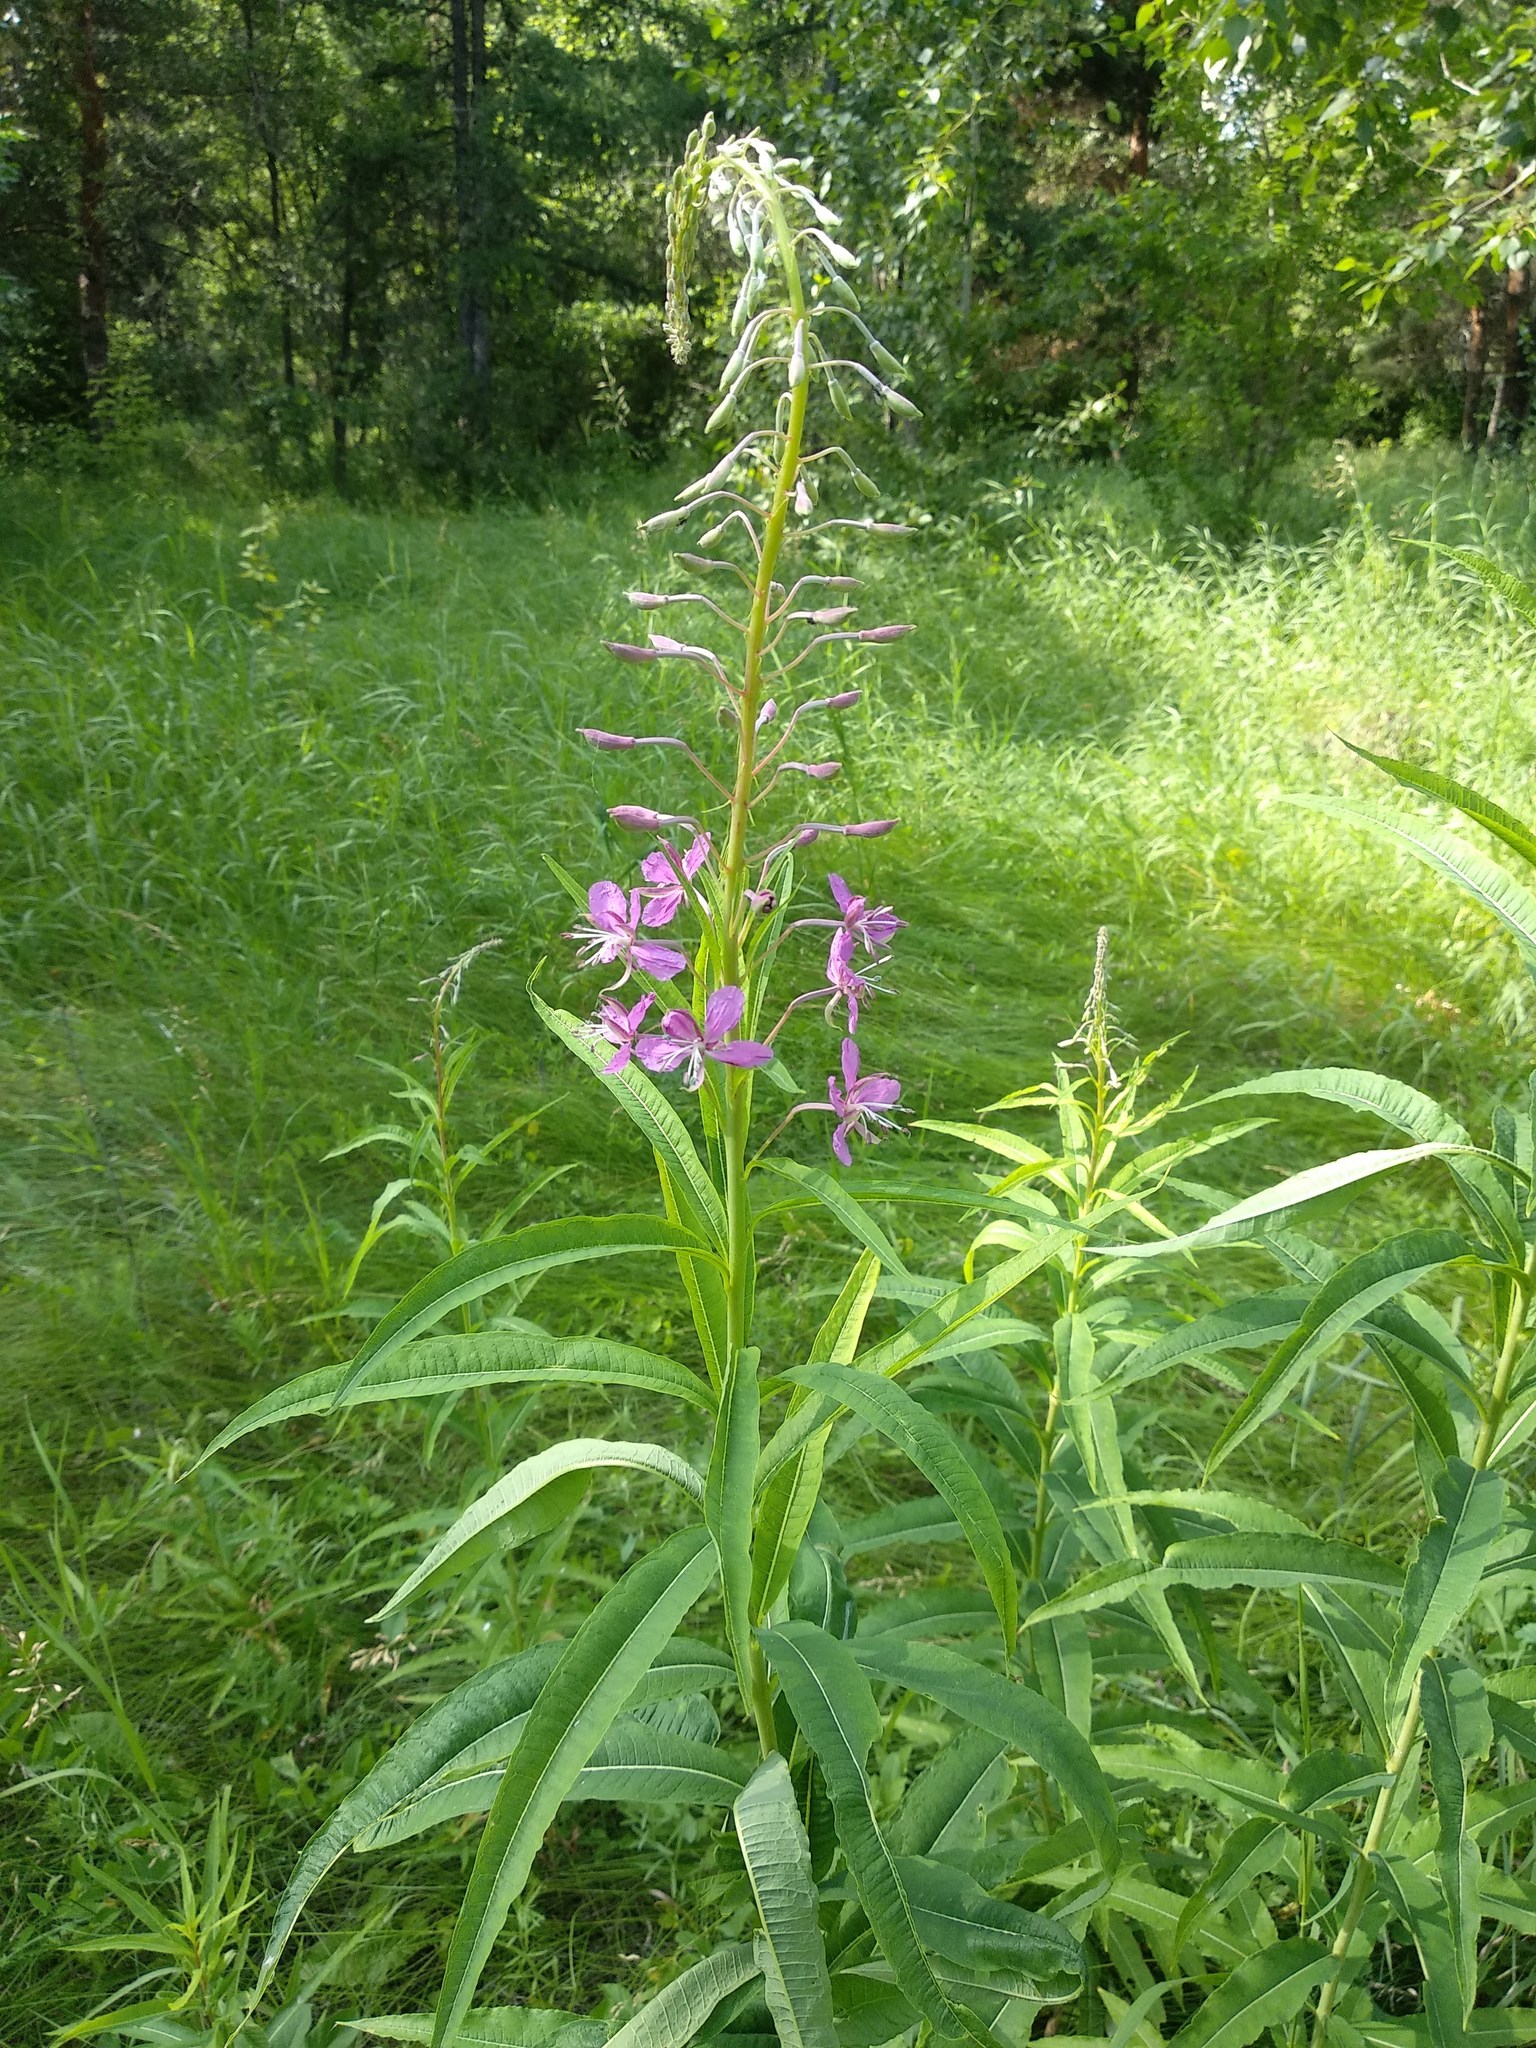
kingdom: Plantae
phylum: Tracheophyta
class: Magnoliopsida
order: Myrtales
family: Onagraceae
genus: Chamaenerion
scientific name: Chamaenerion angustifolium
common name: Fireweed
